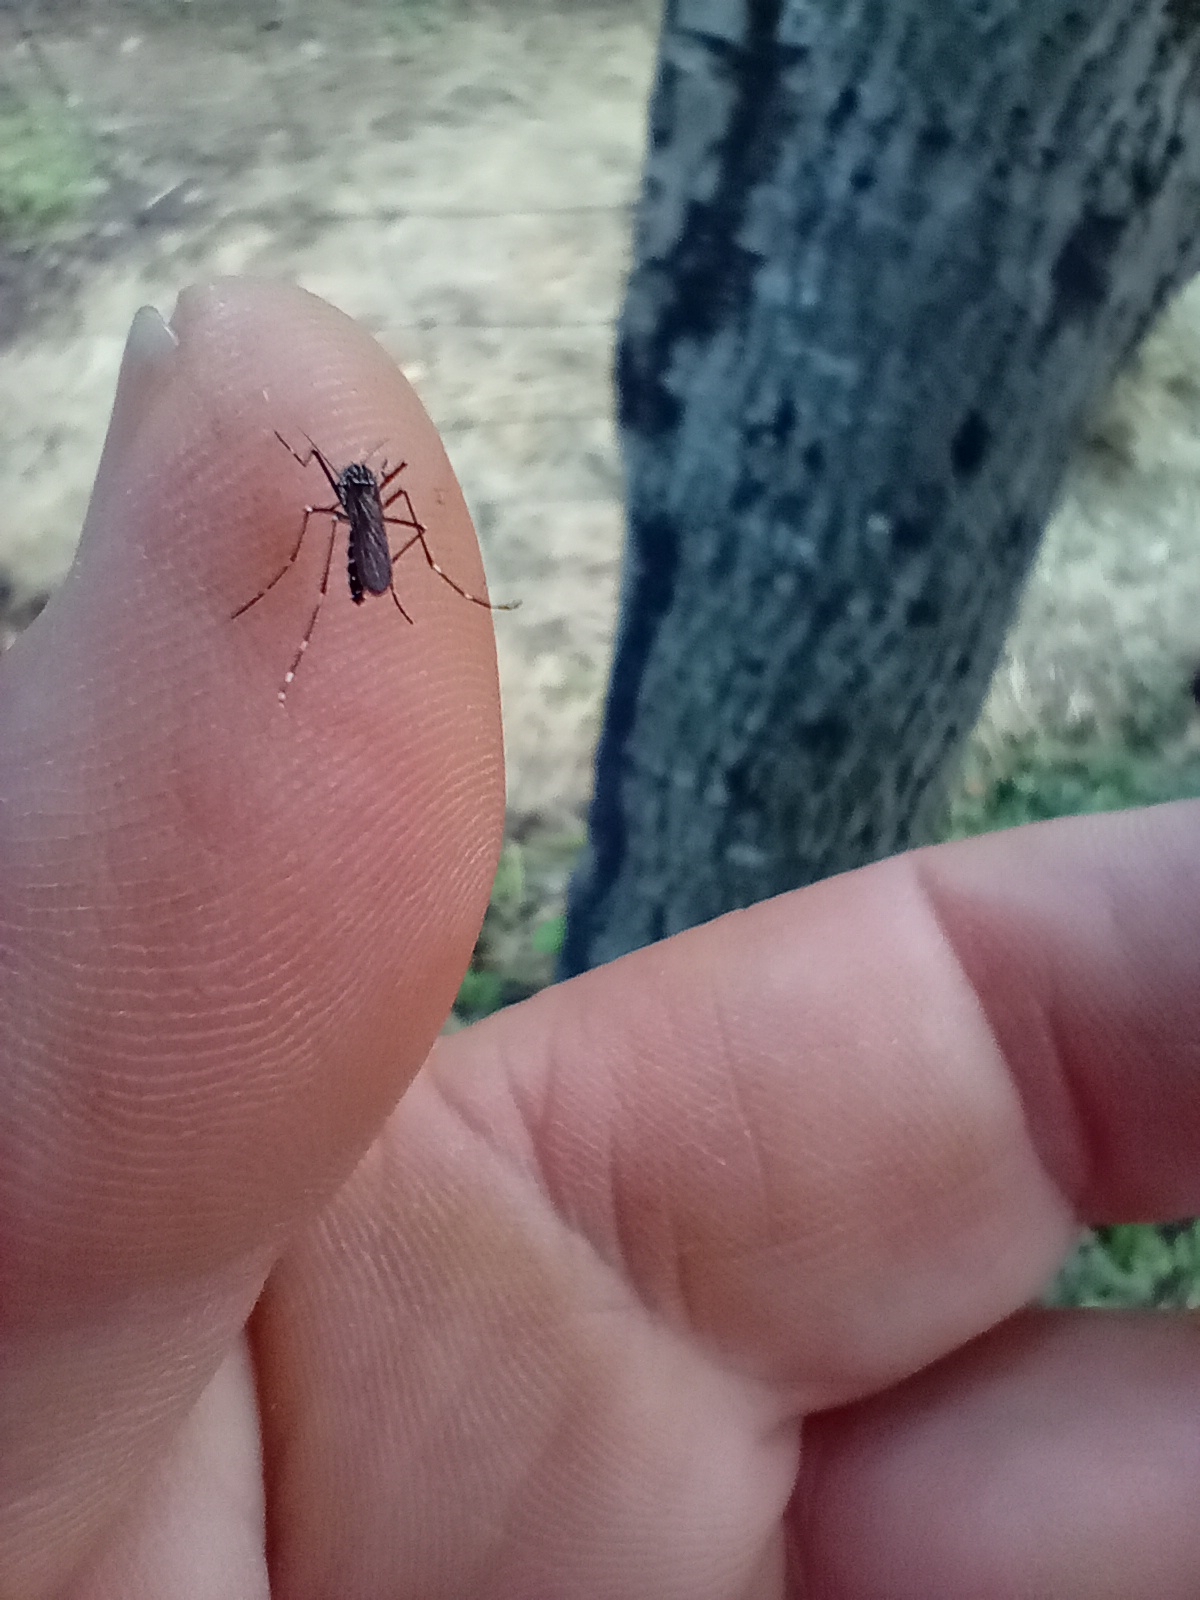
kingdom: Animalia
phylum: Arthropoda
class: Insecta
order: Diptera
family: Culicidae
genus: Aedes
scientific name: Aedes albopictus
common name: Tiger mosquito
